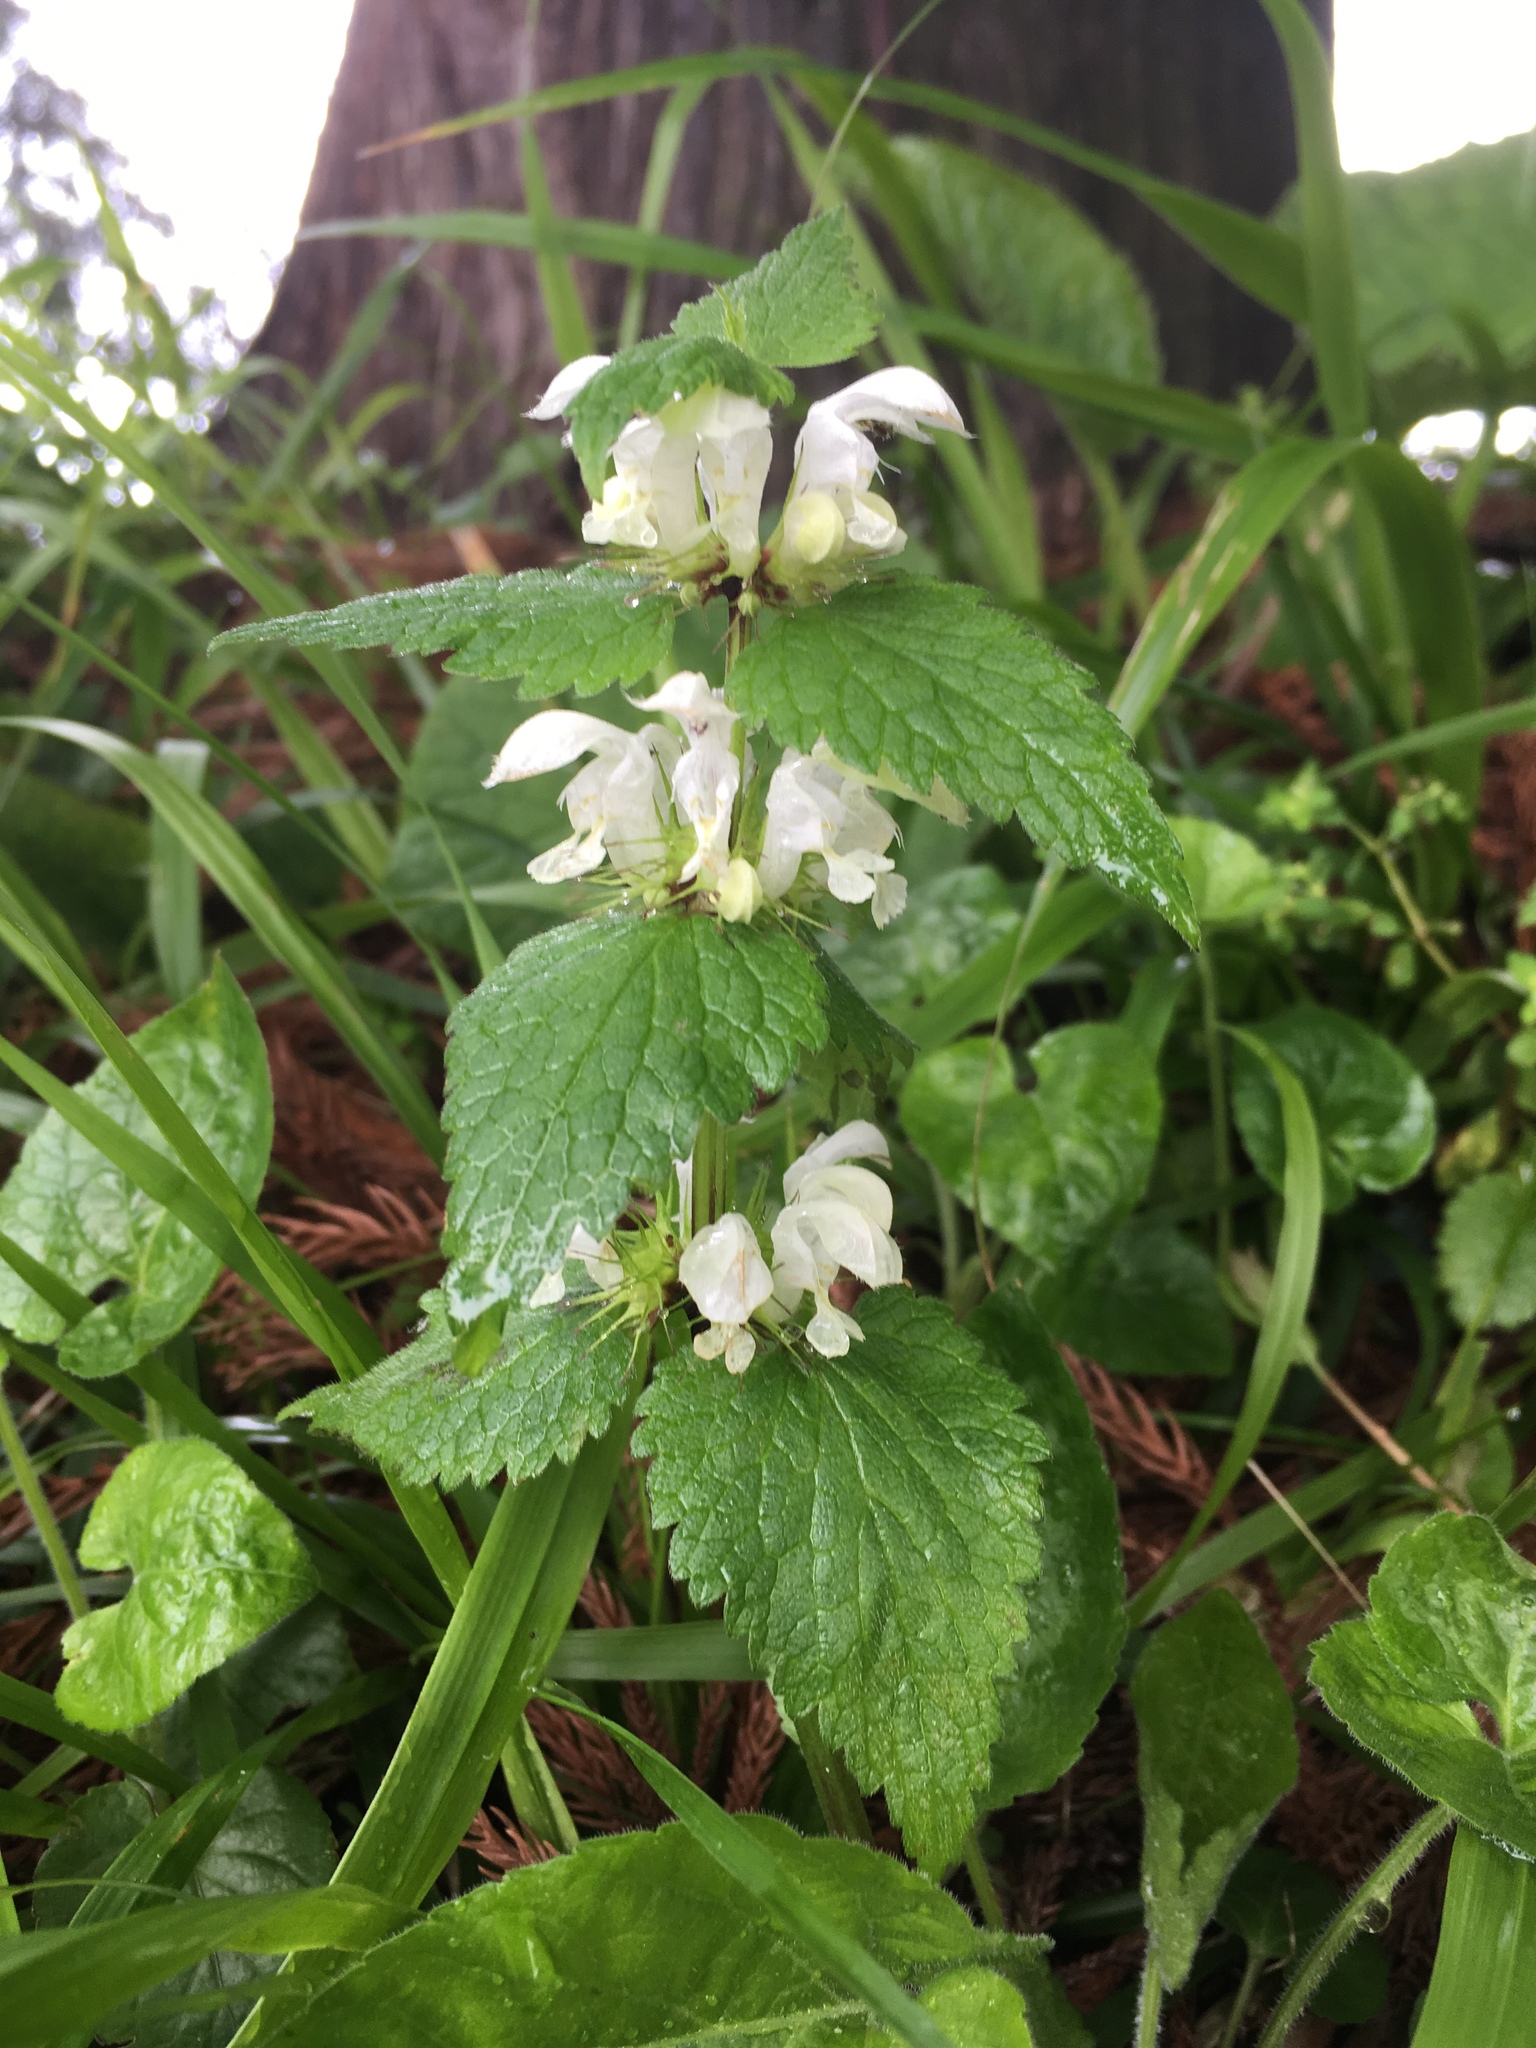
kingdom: Plantae
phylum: Tracheophyta
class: Magnoliopsida
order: Lamiales
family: Lamiaceae
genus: Lamium
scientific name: Lamium album
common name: White dead-nettle
